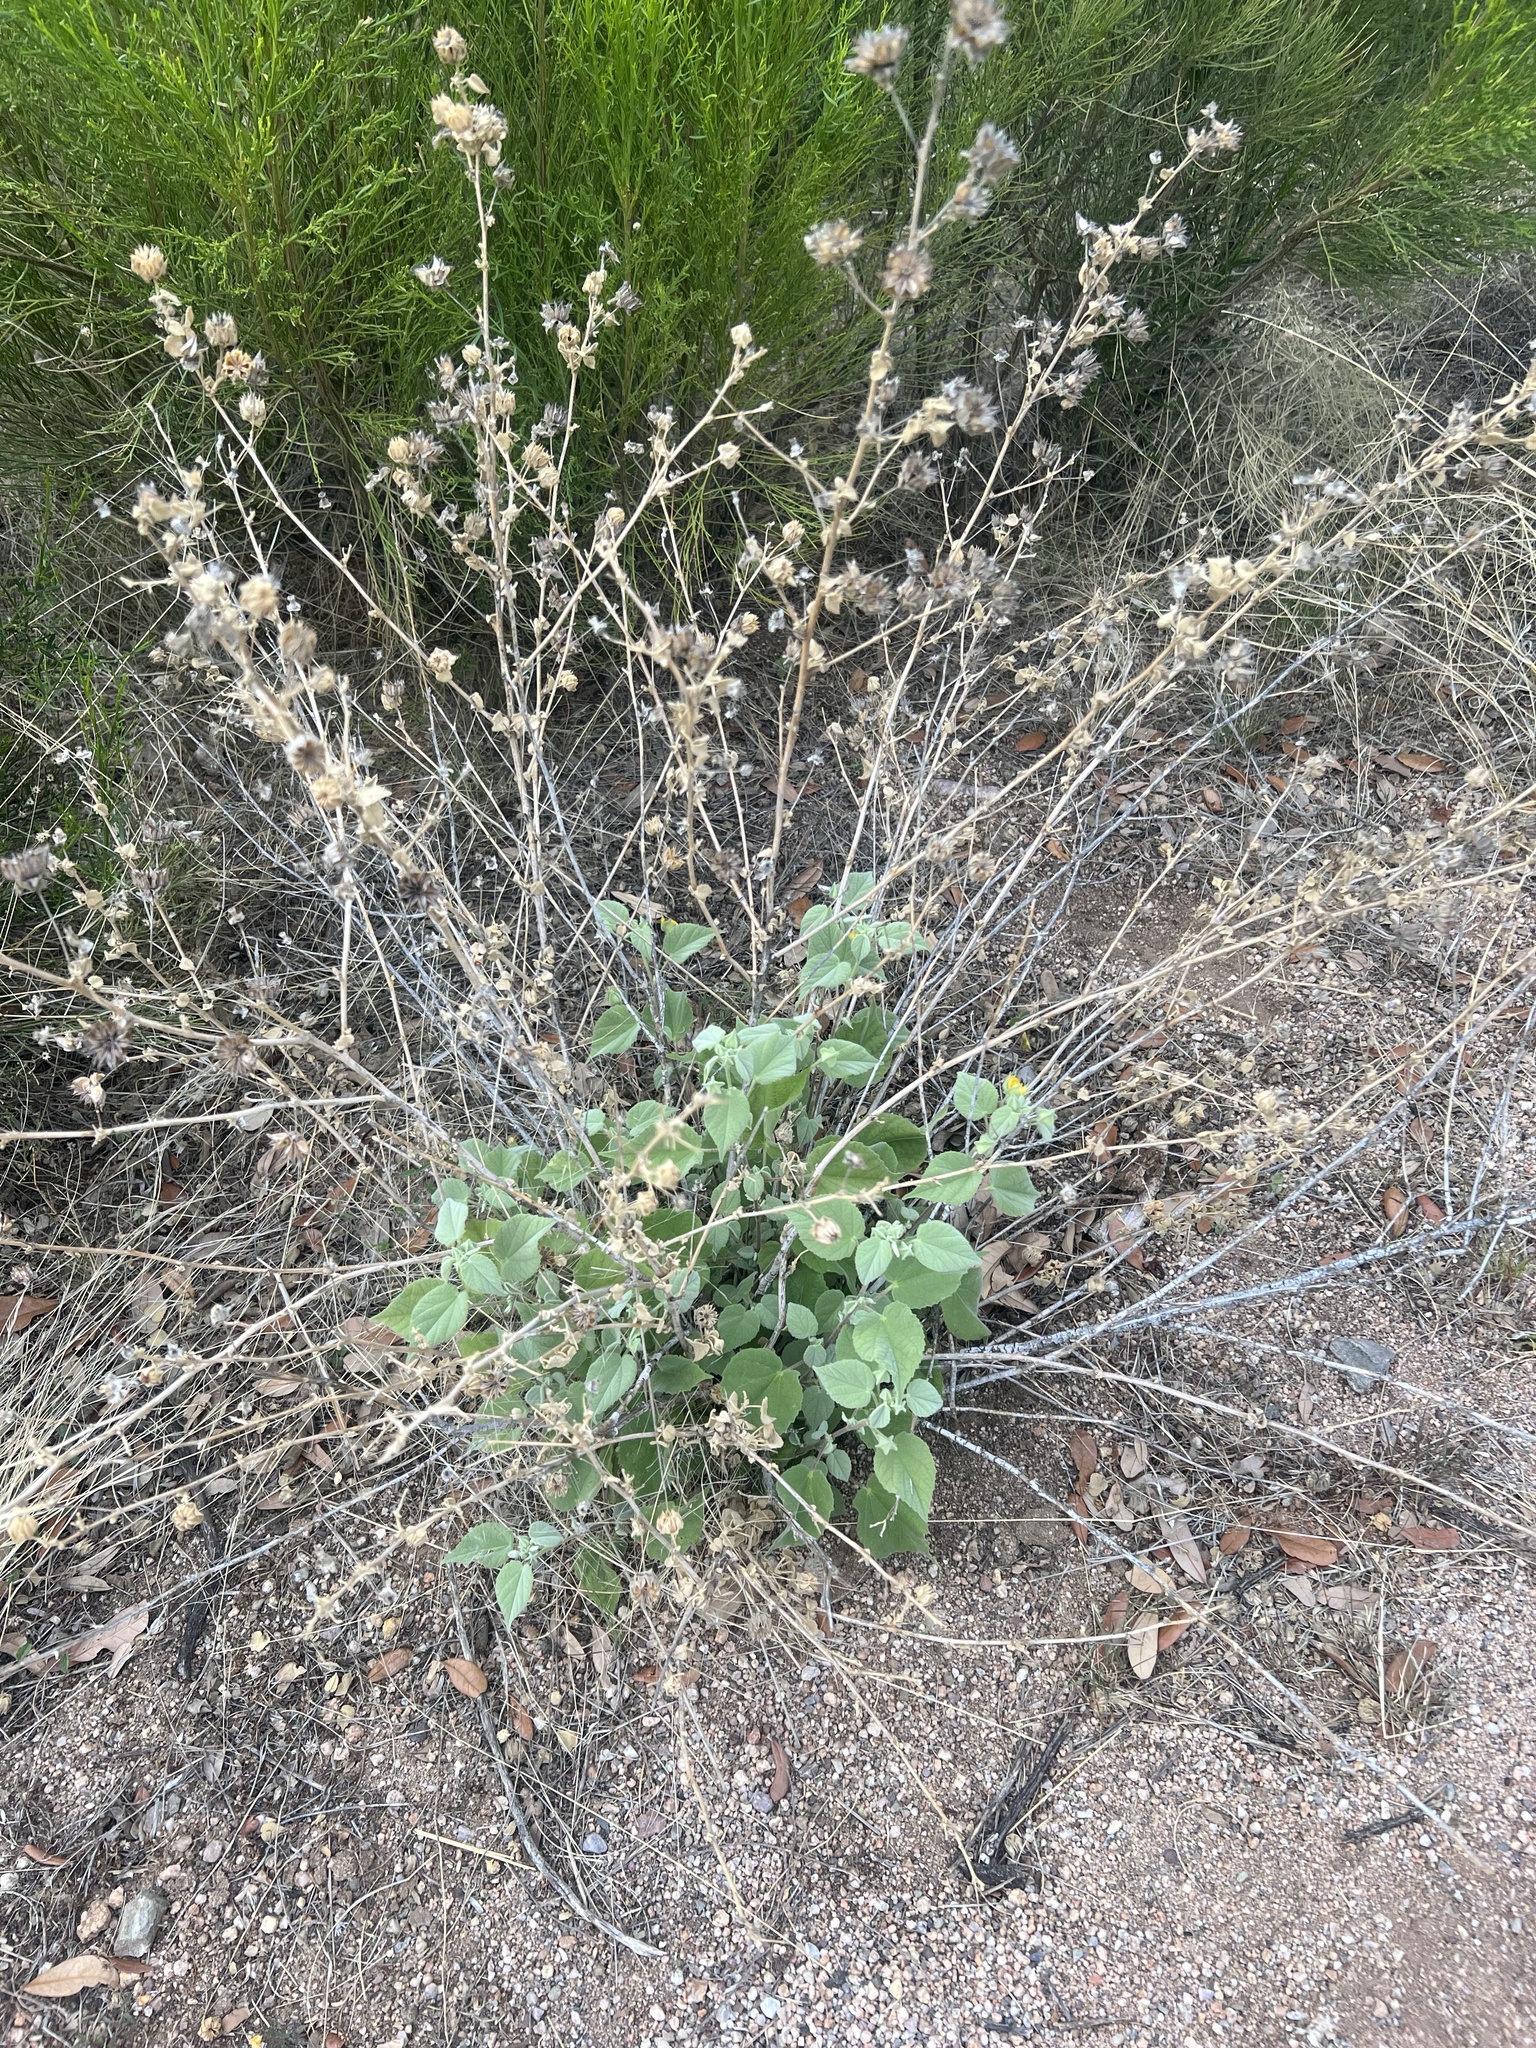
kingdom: Plantae
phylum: Tracheophyta
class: Magnoliopsida
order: Malvales
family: Malvaceae
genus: Abutilon
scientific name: Abutilon abutiloides
